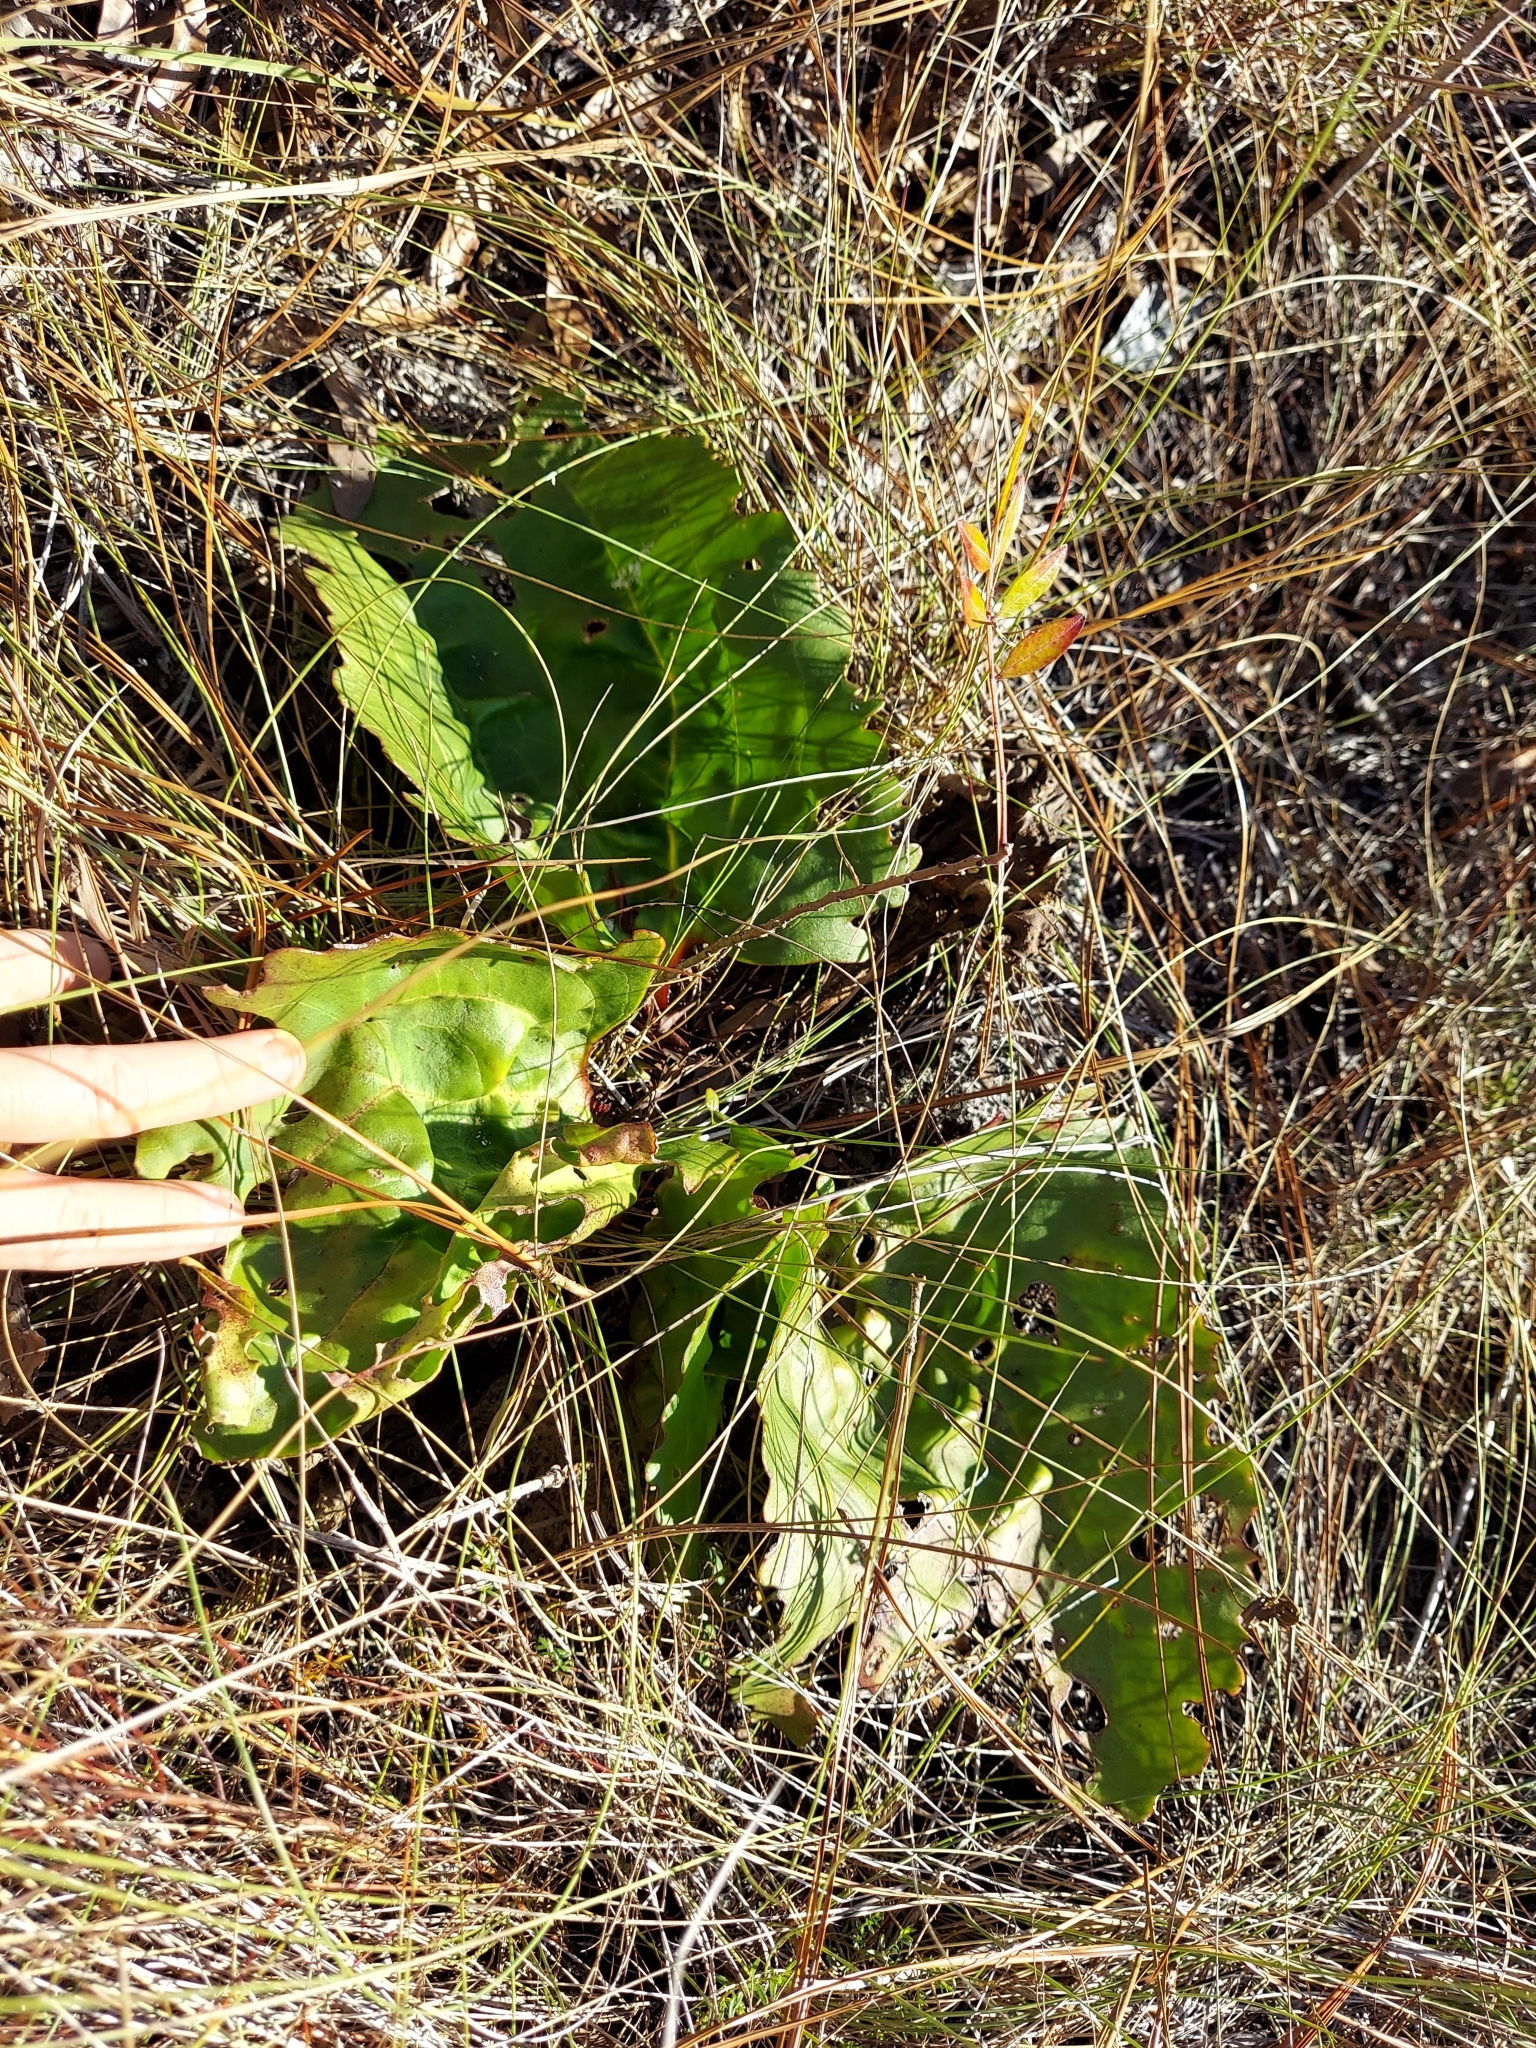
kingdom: Plantae
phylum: Tracheophyta
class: Magnoliopsida
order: Asterales
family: Asteraceae
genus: Arnoglossum
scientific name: Arnoglossum floridanum
